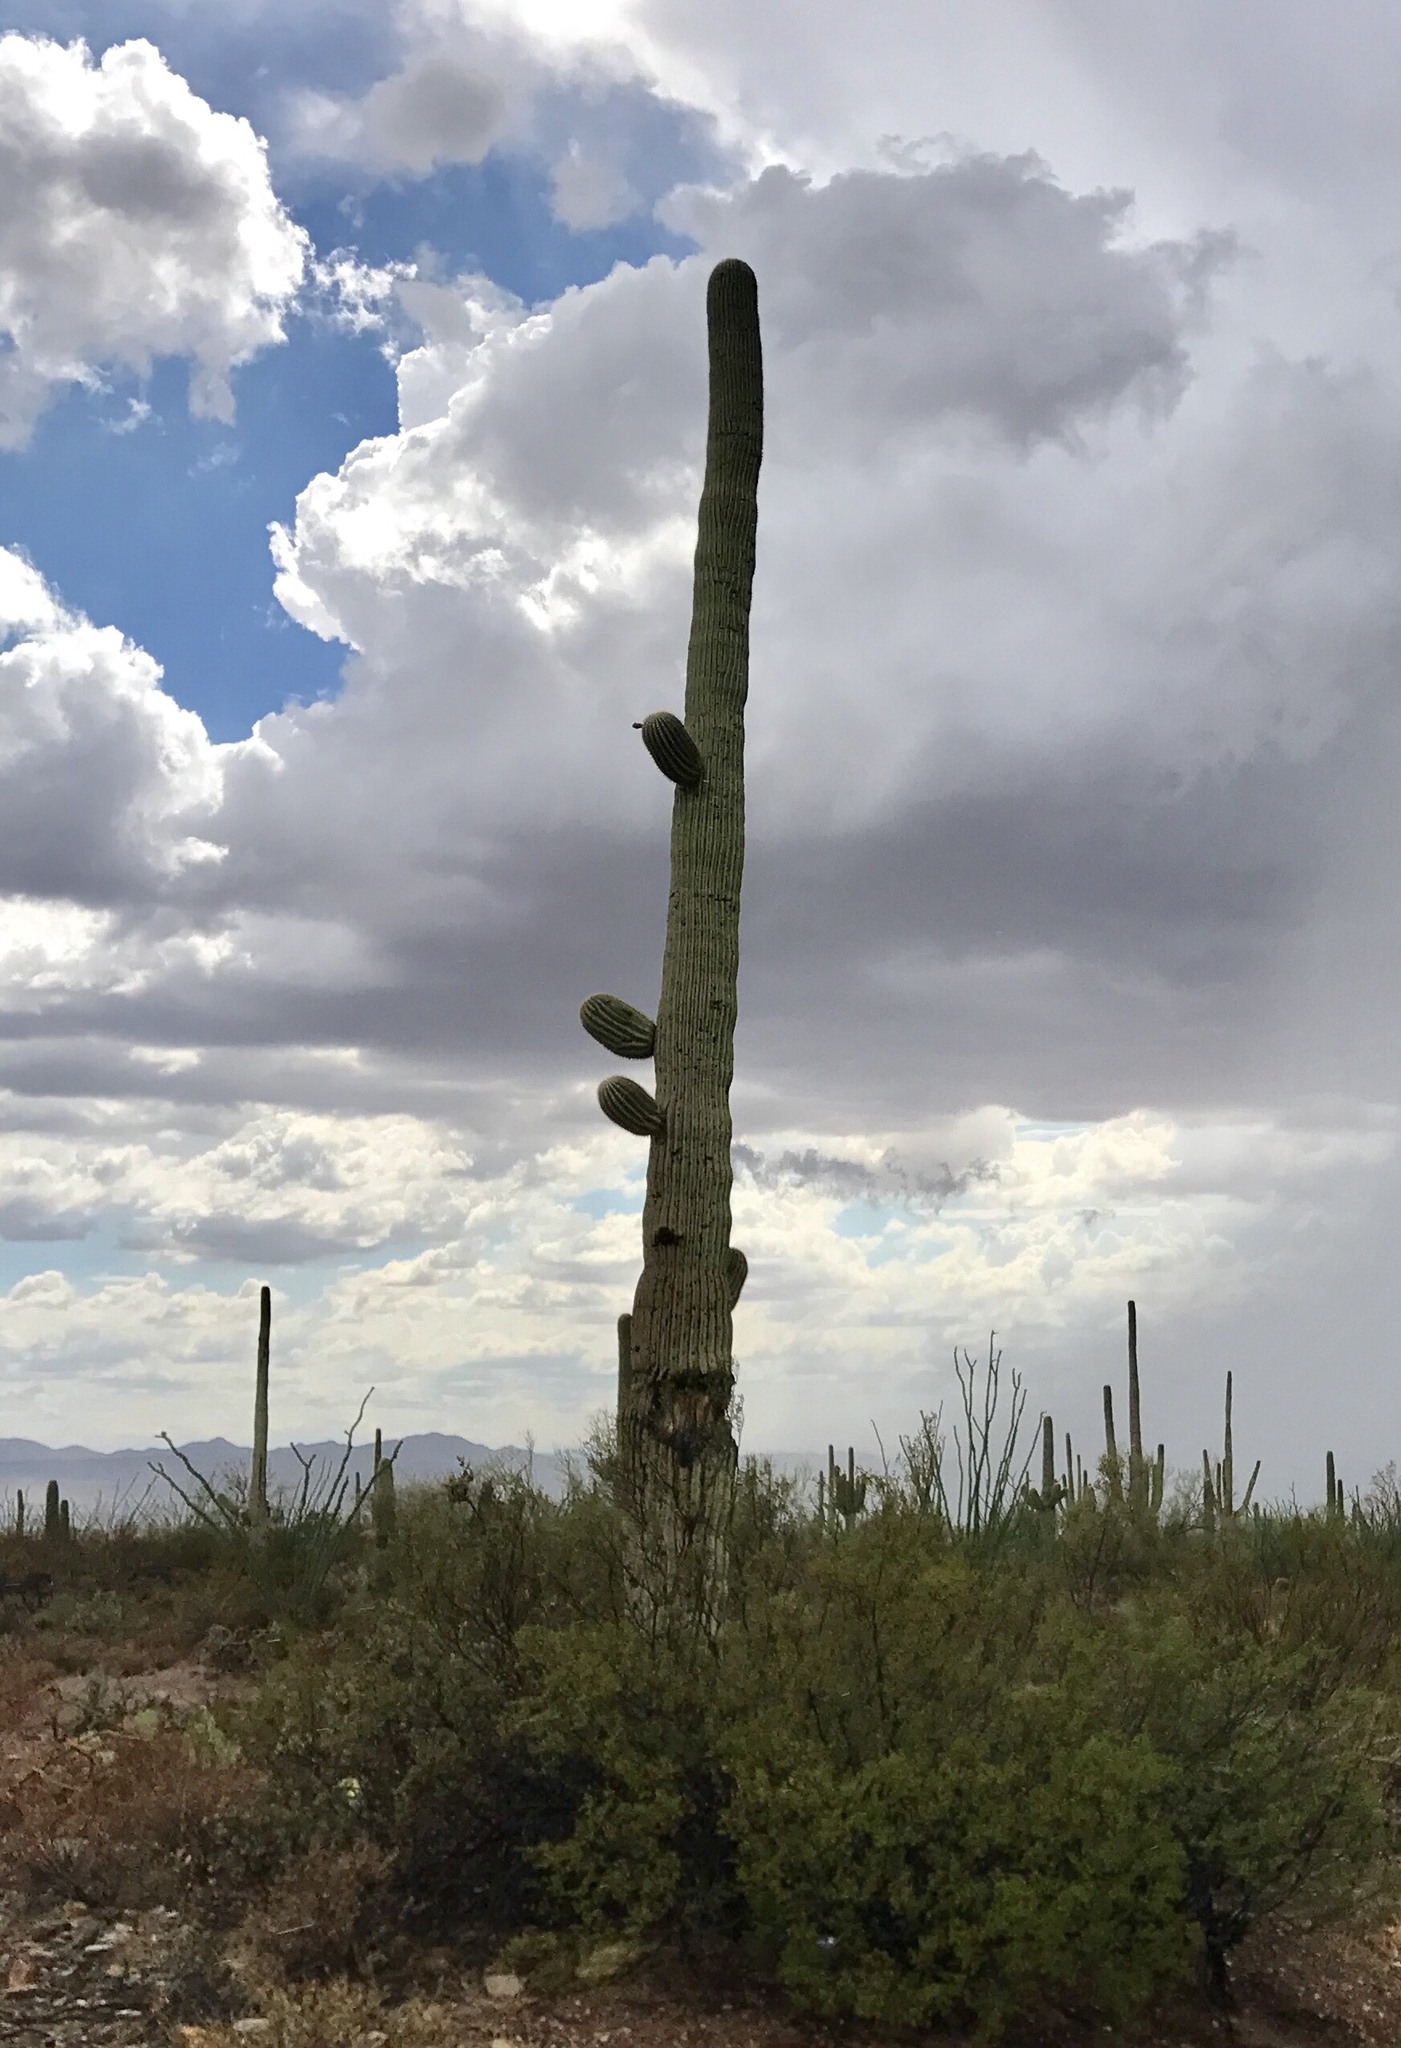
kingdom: Plantae
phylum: Tracheophyta
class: Magnoliopsida
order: Caryophyllales
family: Cactaceae
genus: Carnegiea
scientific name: Carnegiea gigantea
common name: Saguaro
